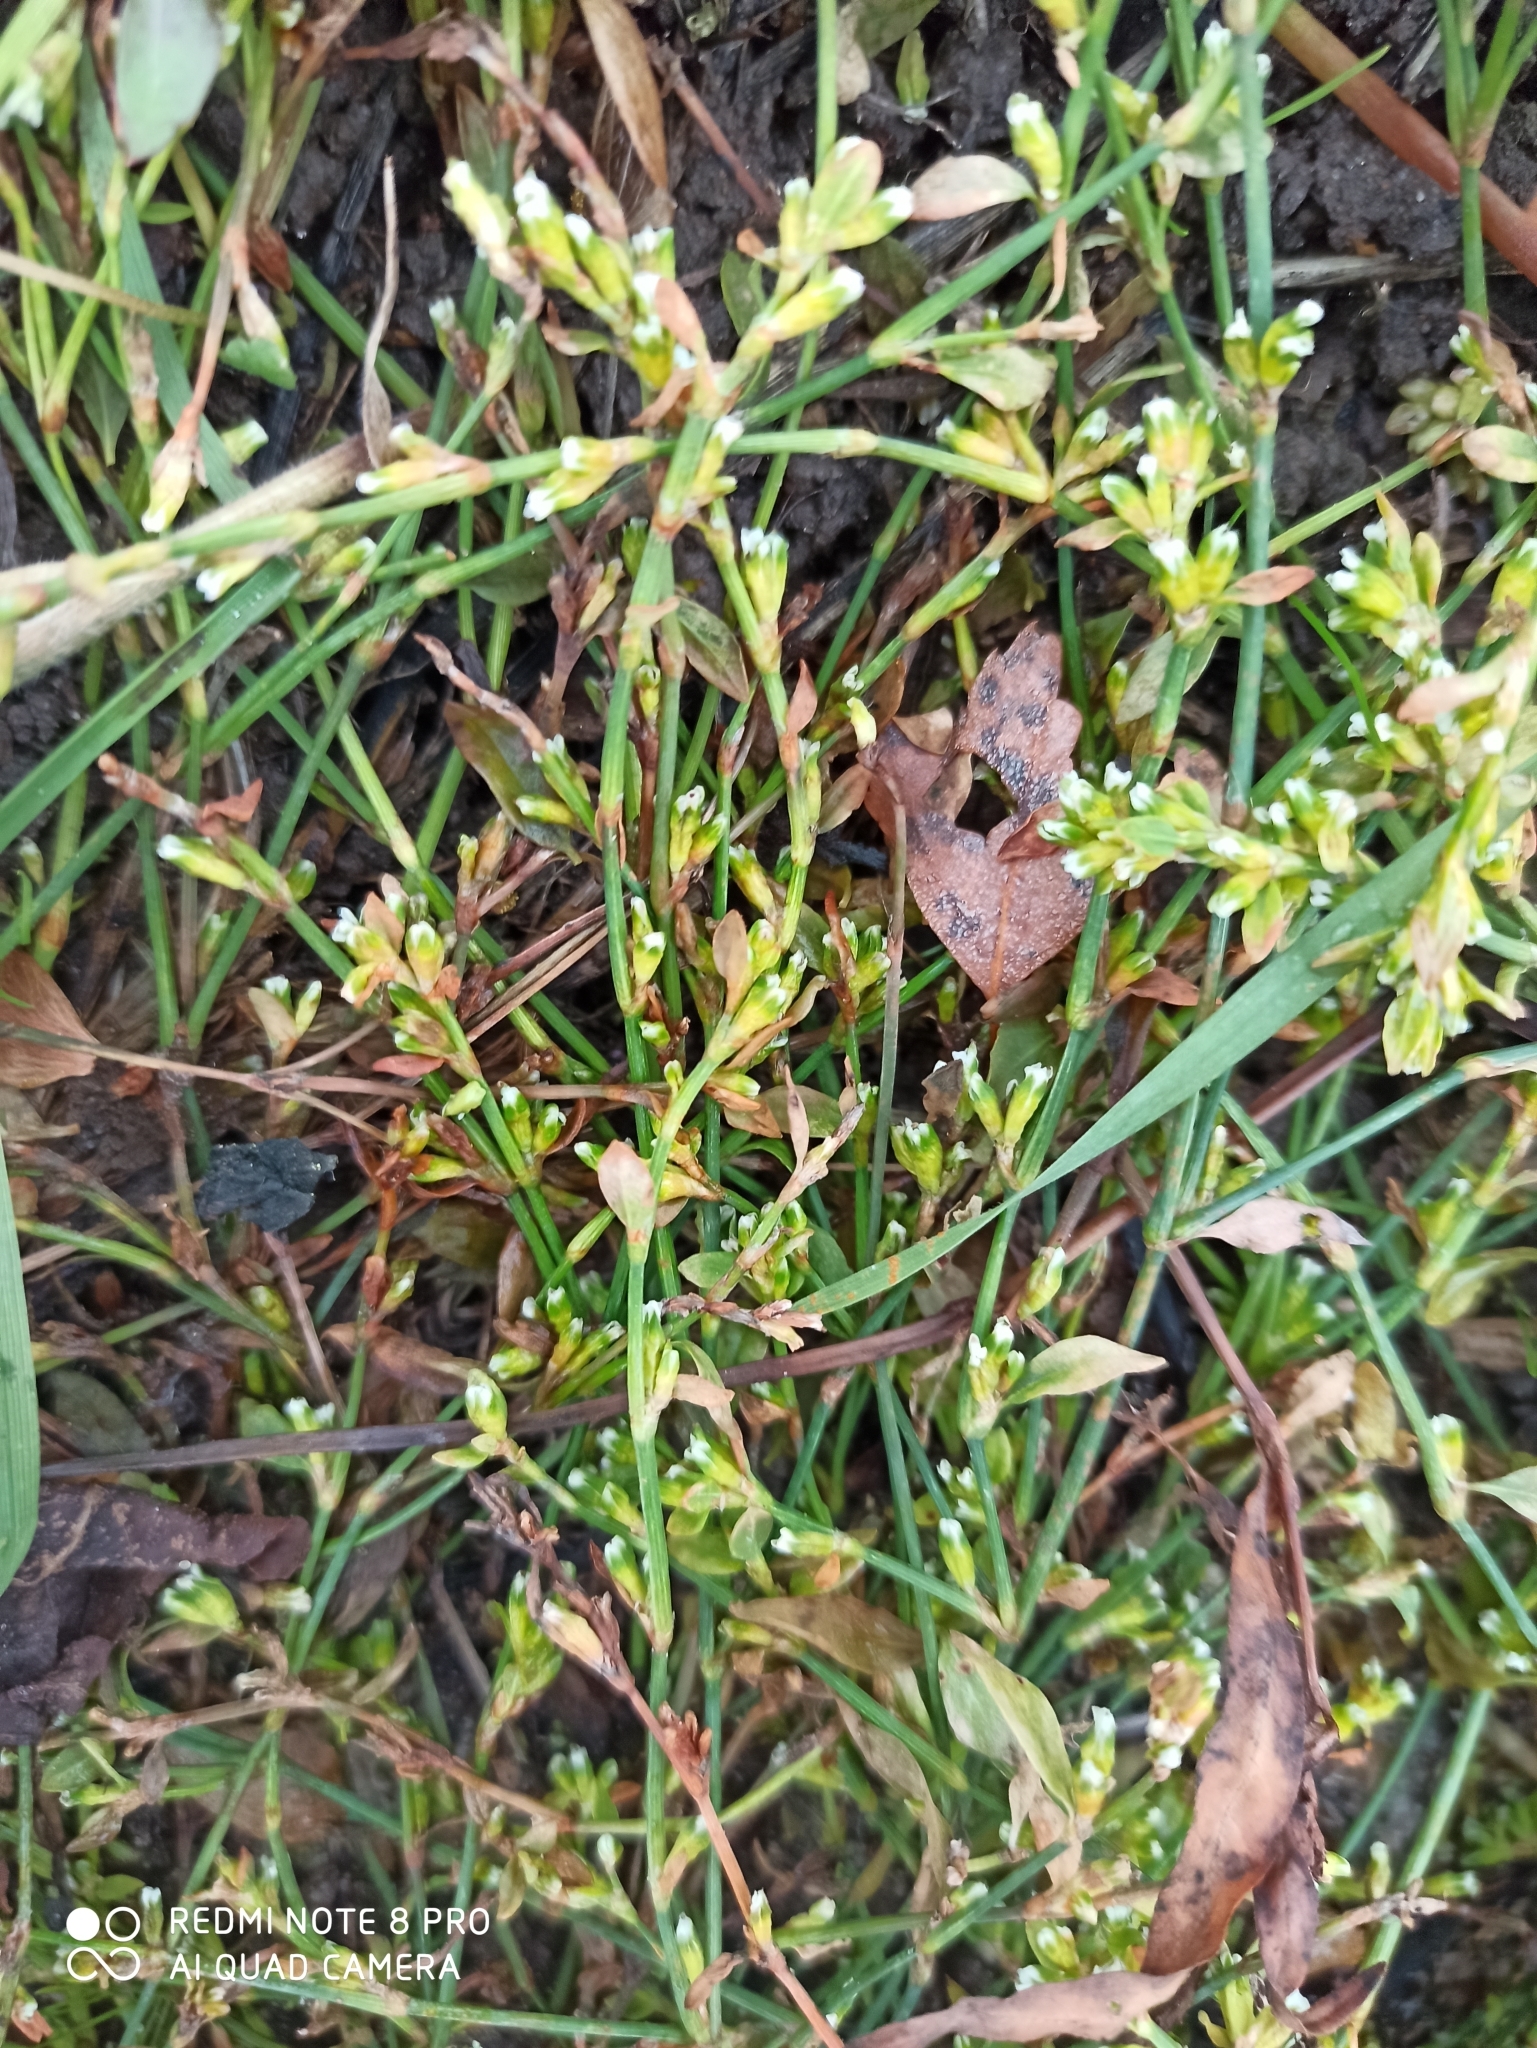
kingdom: Plantae
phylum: Tracheophyta
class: Magnoliopsida
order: Caryophyllales
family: Polygonaceae
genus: Polygonum
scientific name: Polygonum
